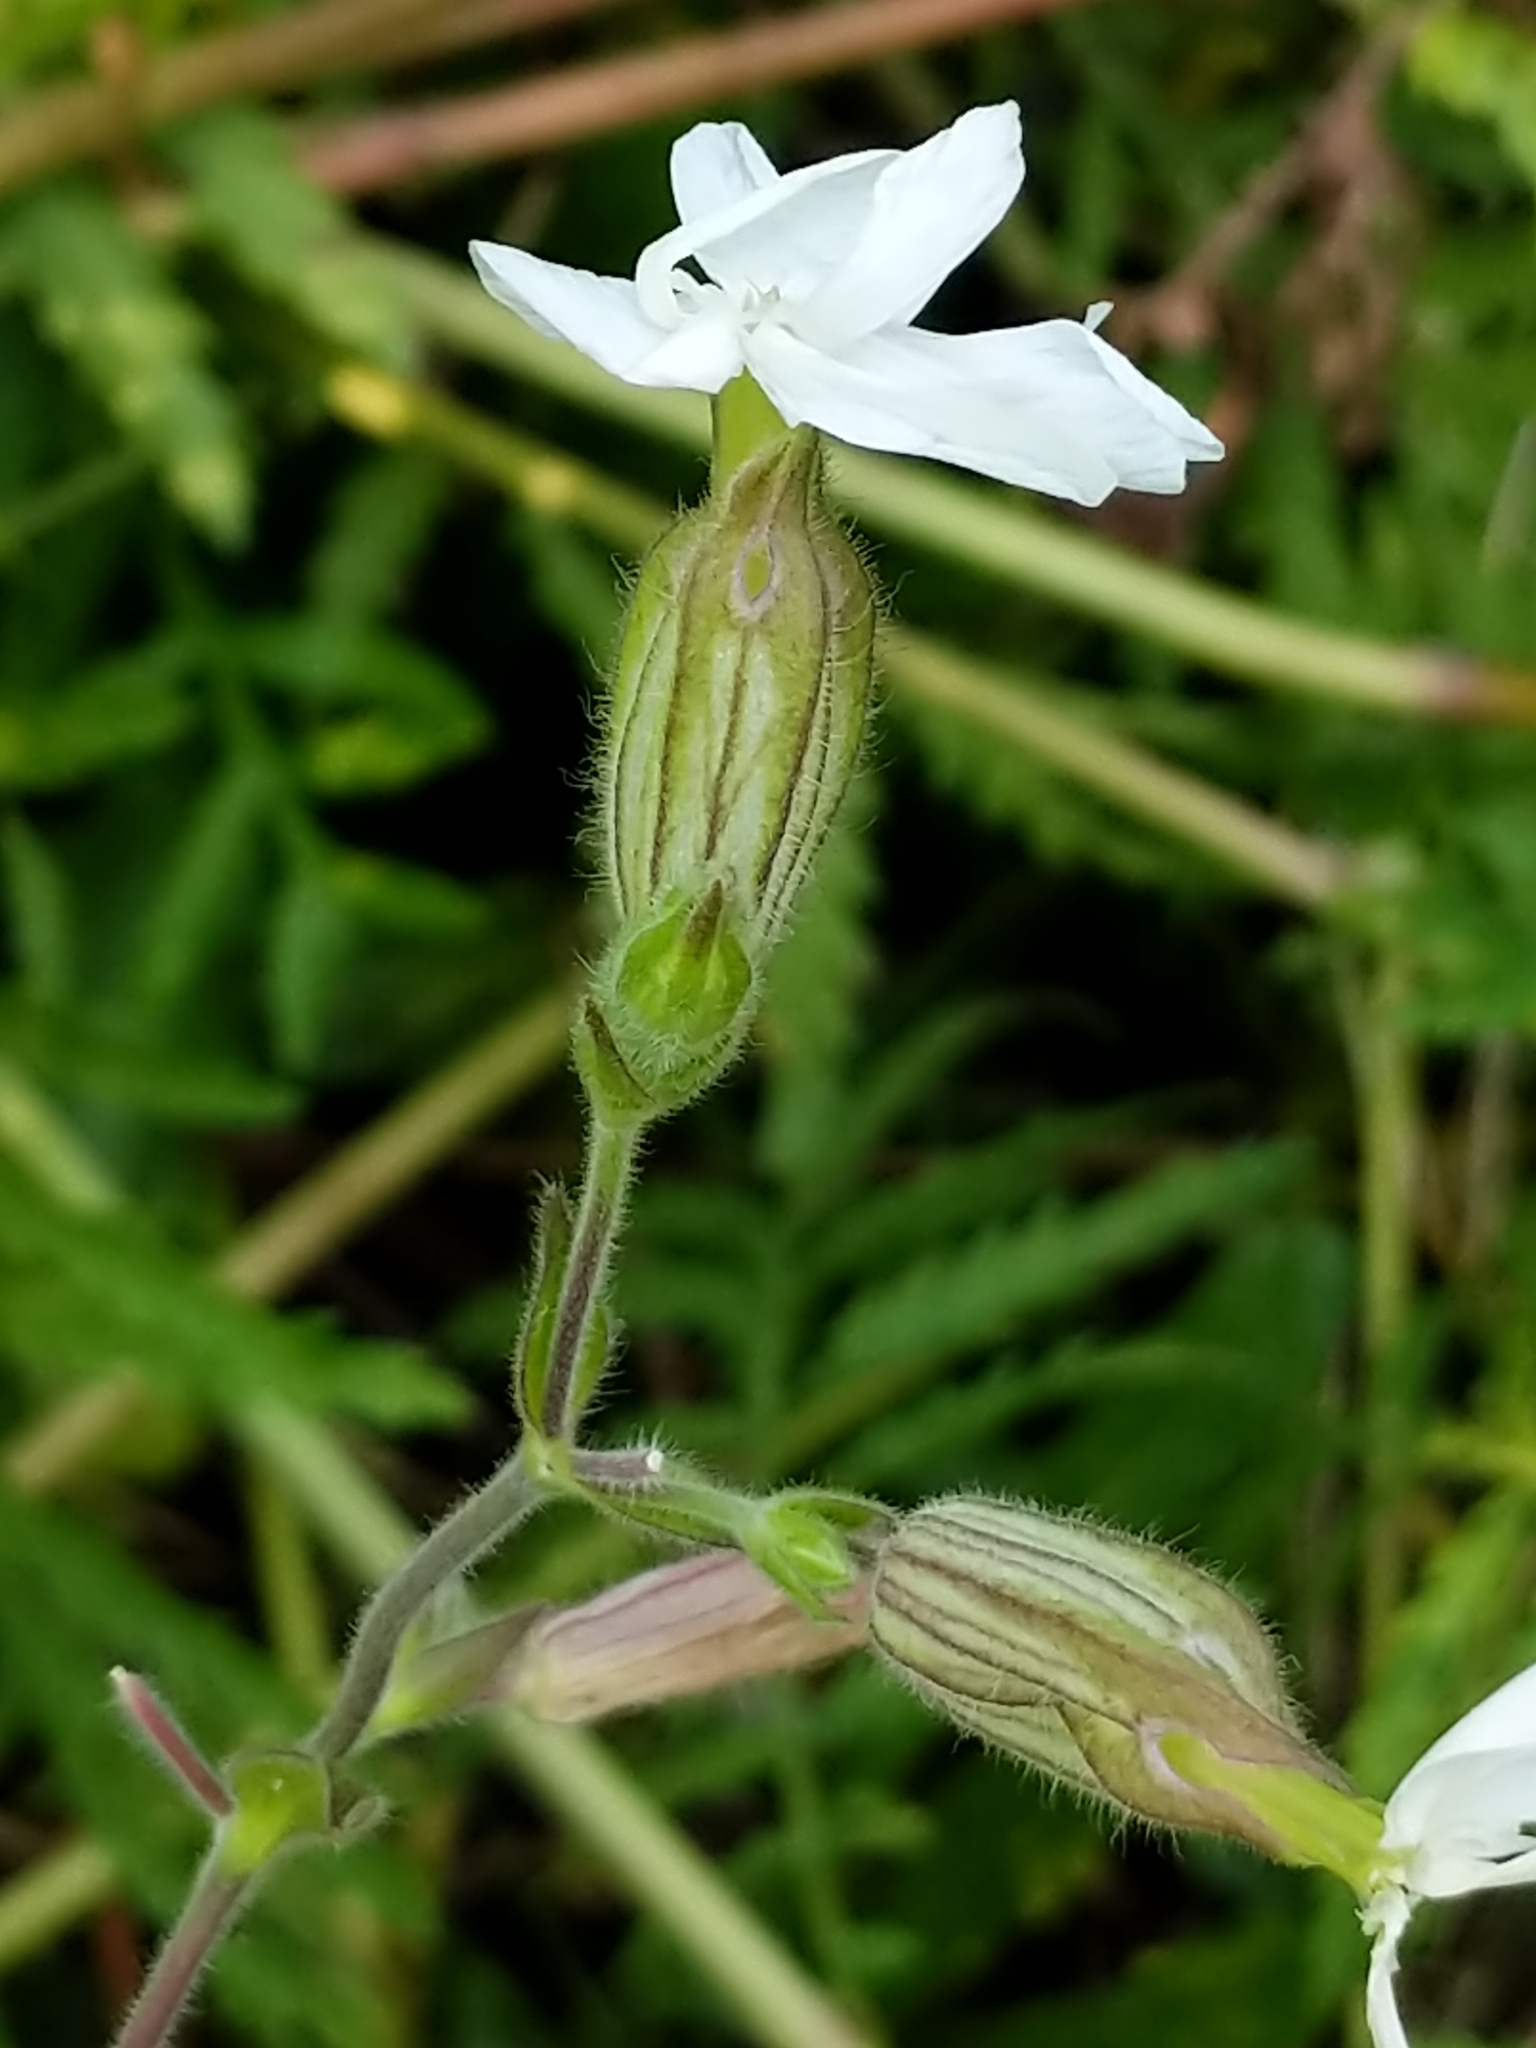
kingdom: Plantae
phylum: Tracheophyta
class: Magnoliopsida
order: Caryophyllales
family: Caryophyllaceae
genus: Silene
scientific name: Silene latifolia
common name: White campion
